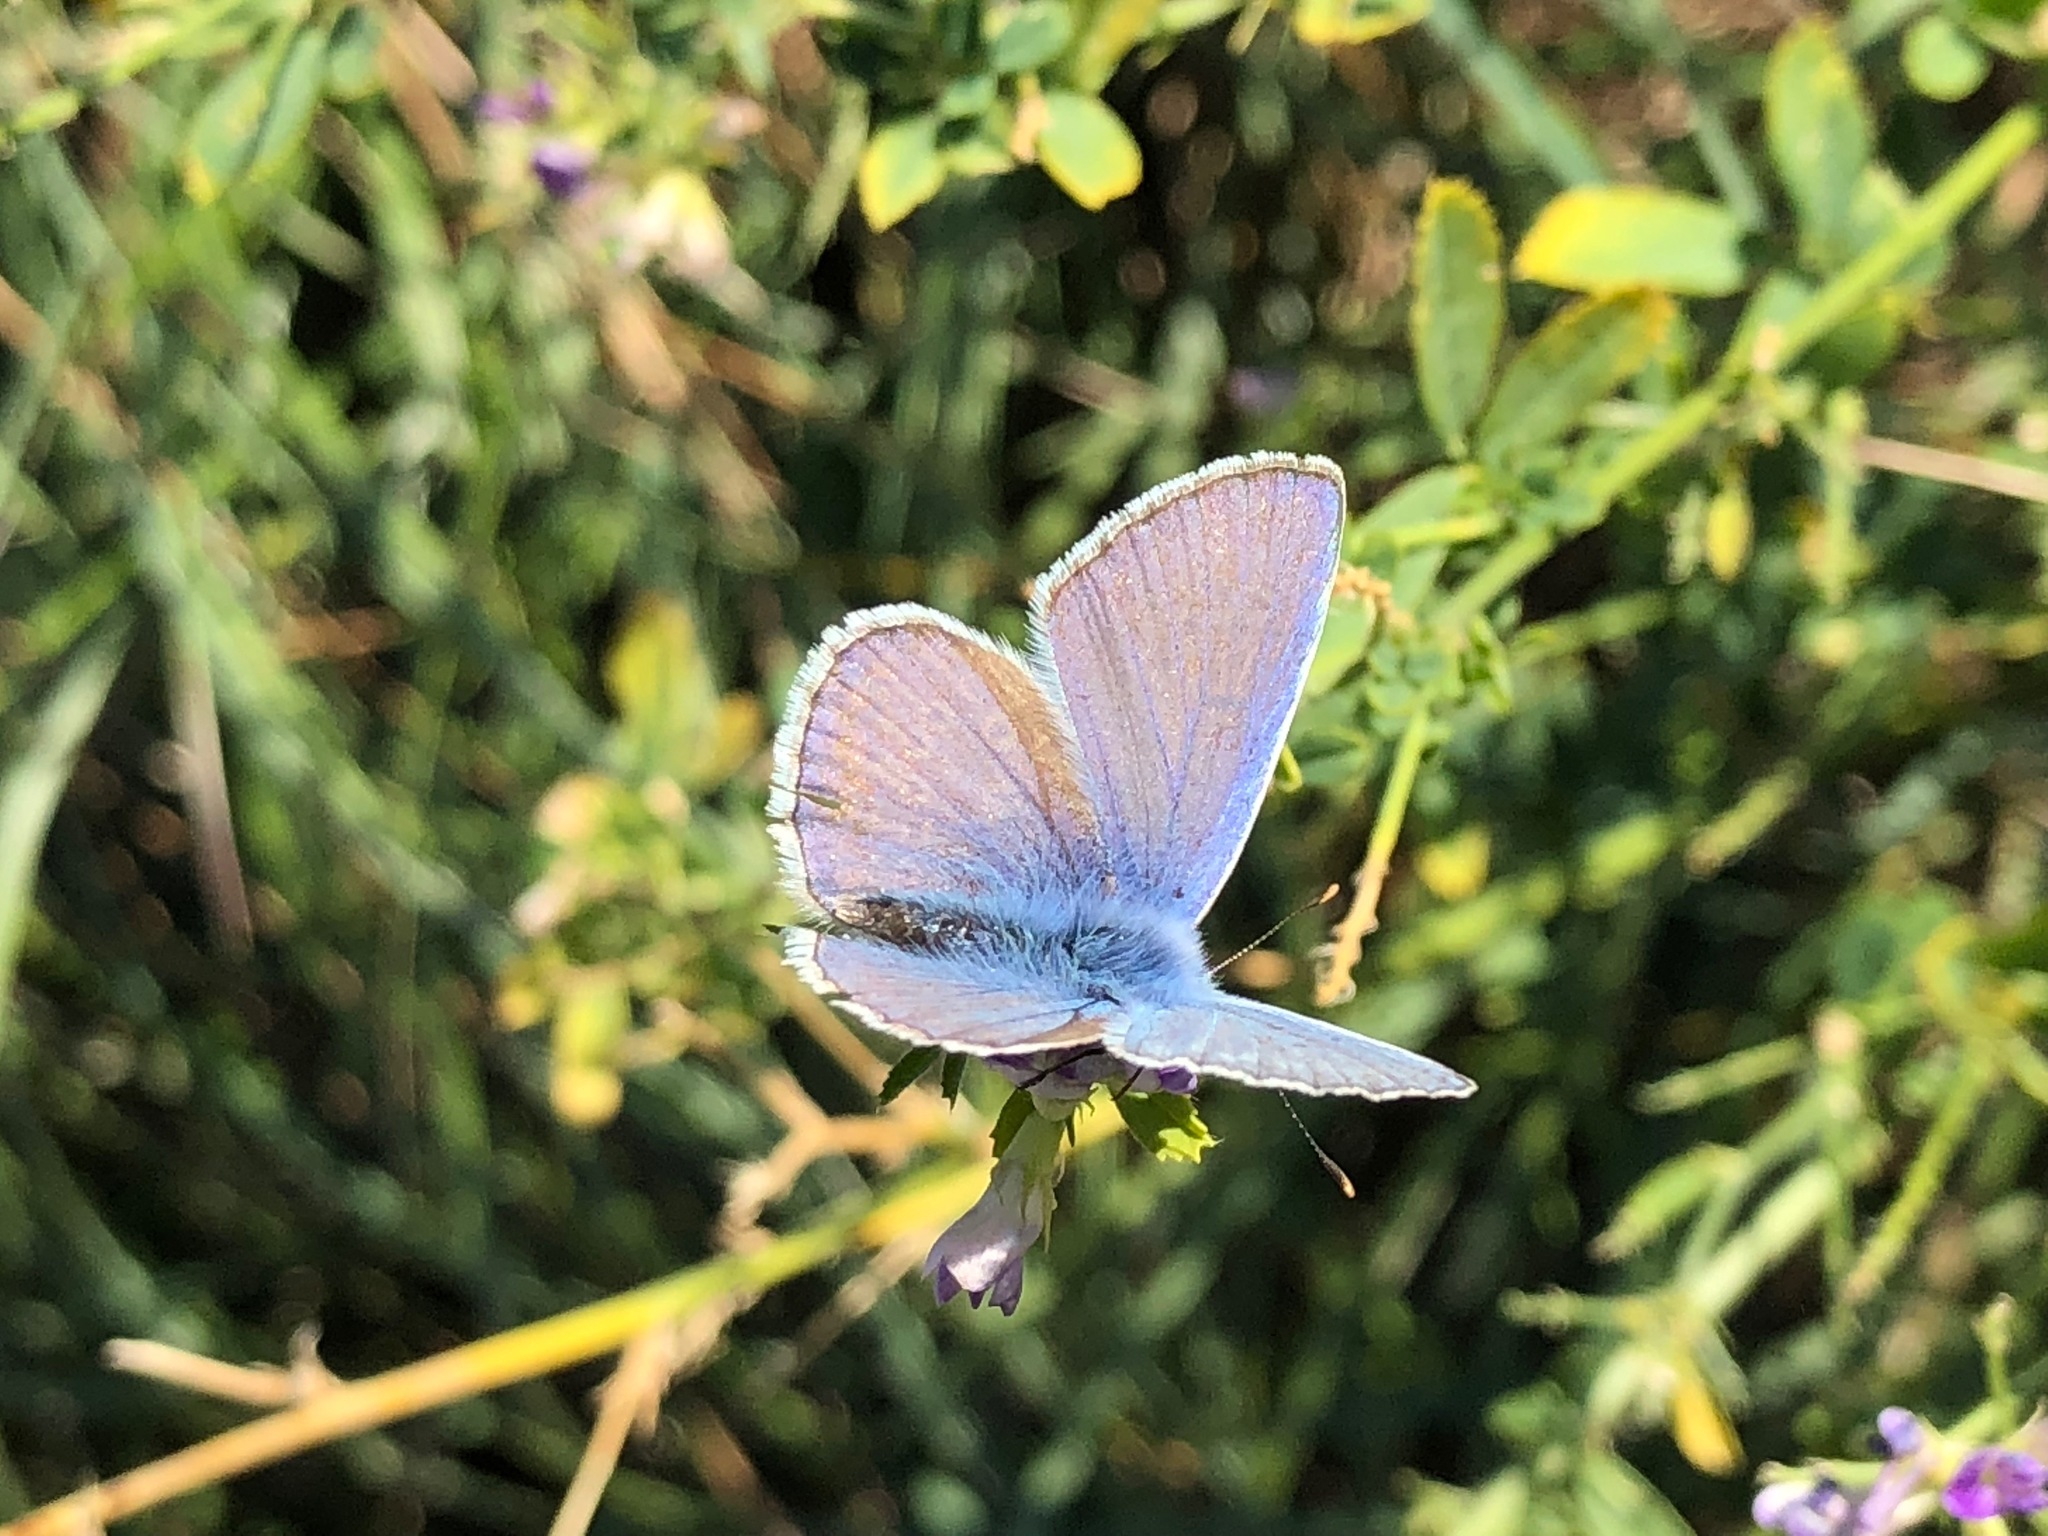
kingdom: Animalia
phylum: Arthropoda
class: Insecta
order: Lepidoptera
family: Lycaenidae
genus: Polyommatus
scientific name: Polyommatus icarus
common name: Common blue
